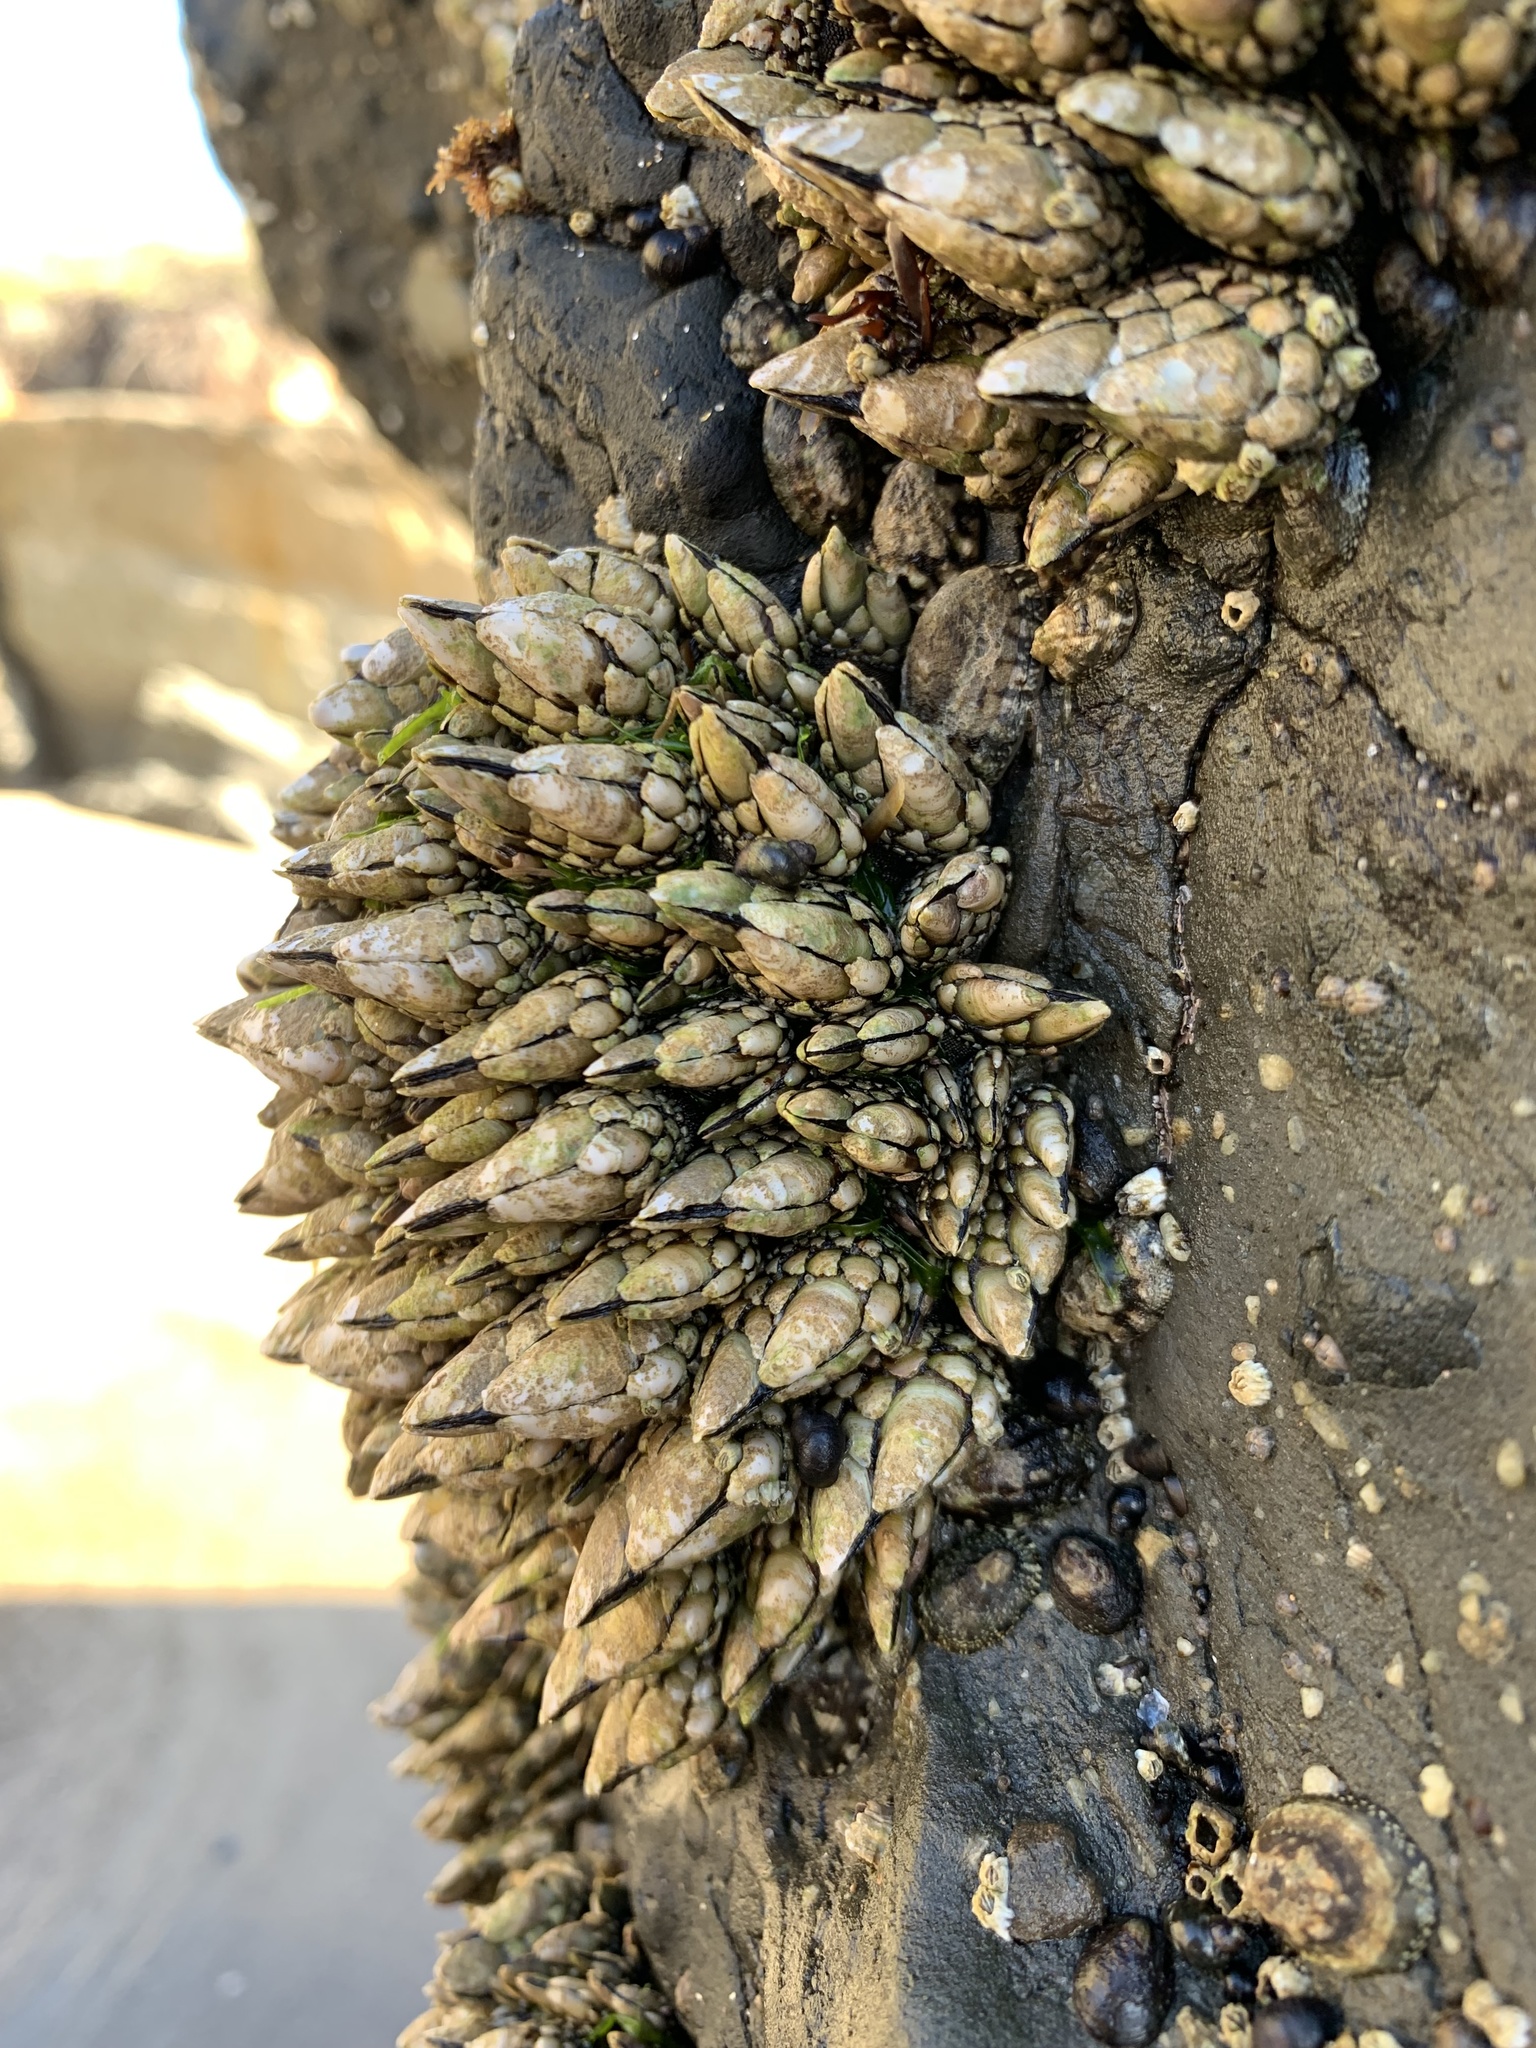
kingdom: Animalia
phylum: Arthropoda
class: Maxillopoda
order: Pedunculata
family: Pollicipedidae
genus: Pollicipes
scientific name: Pollicipes polymerus
